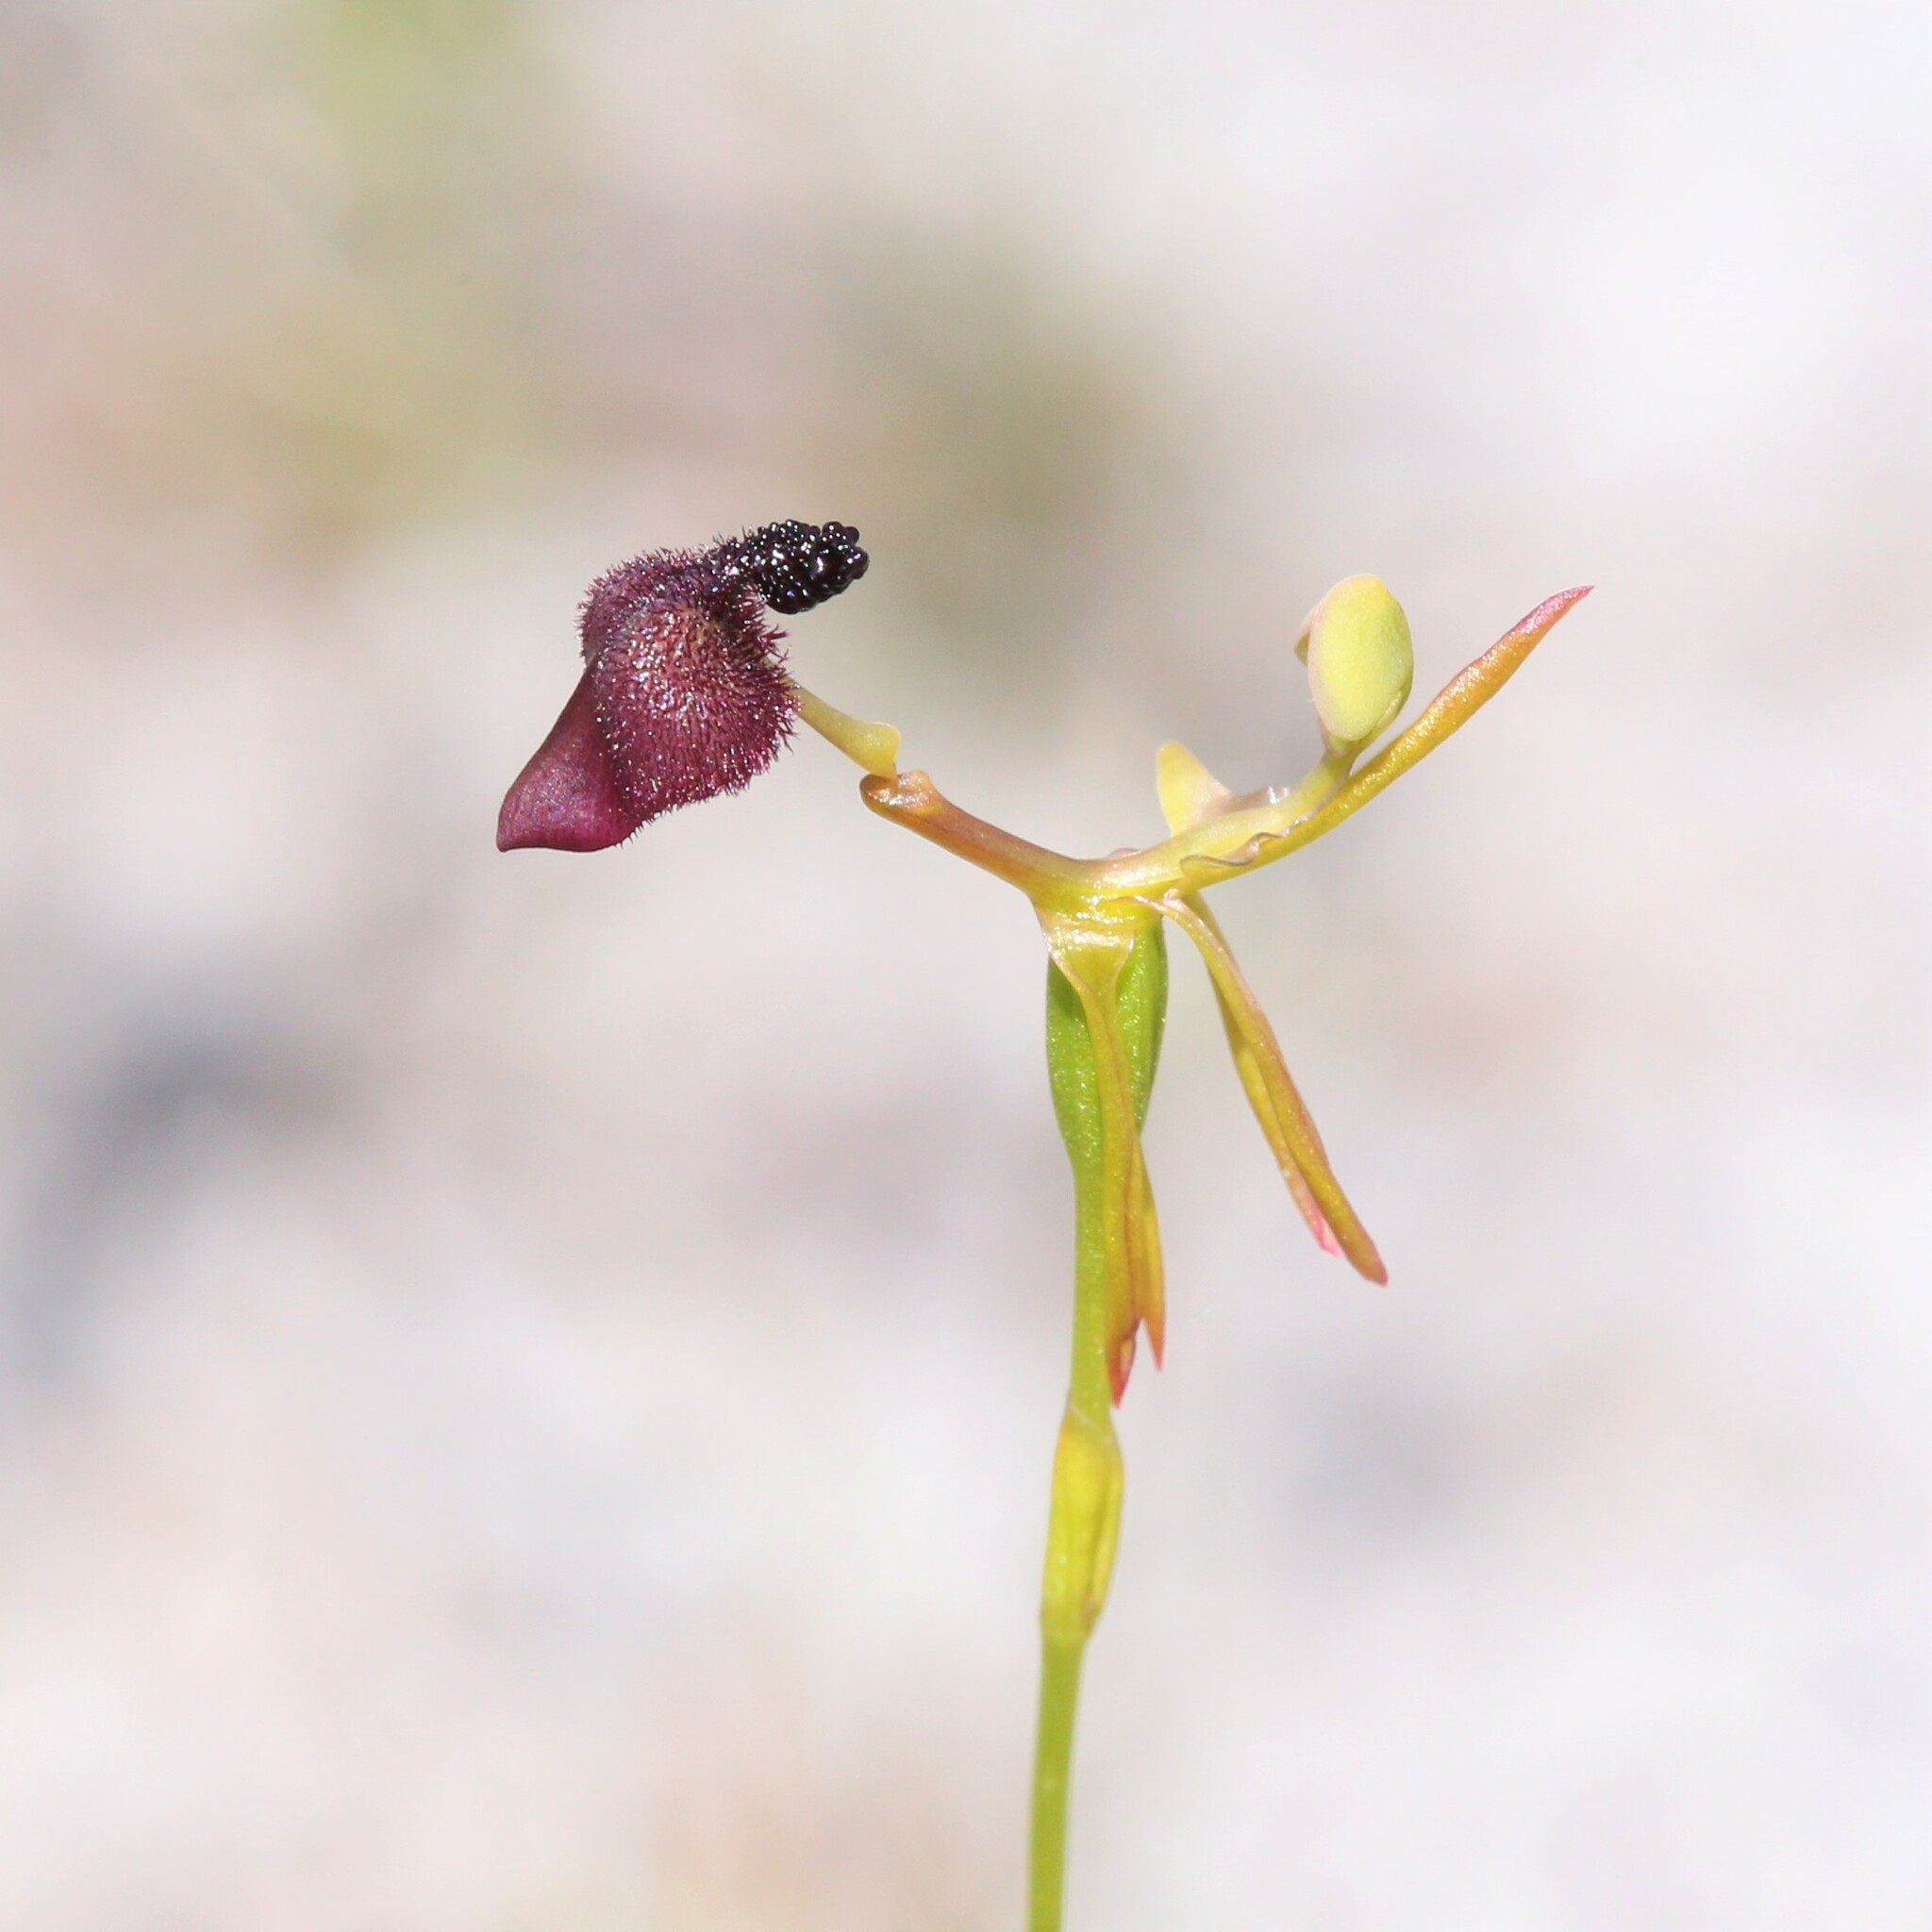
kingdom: Plantae
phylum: Tracheophyta
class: Liliopsida
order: Asparagales
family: Orchidaceae
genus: Drakaea
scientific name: Drakaea glyptodon
